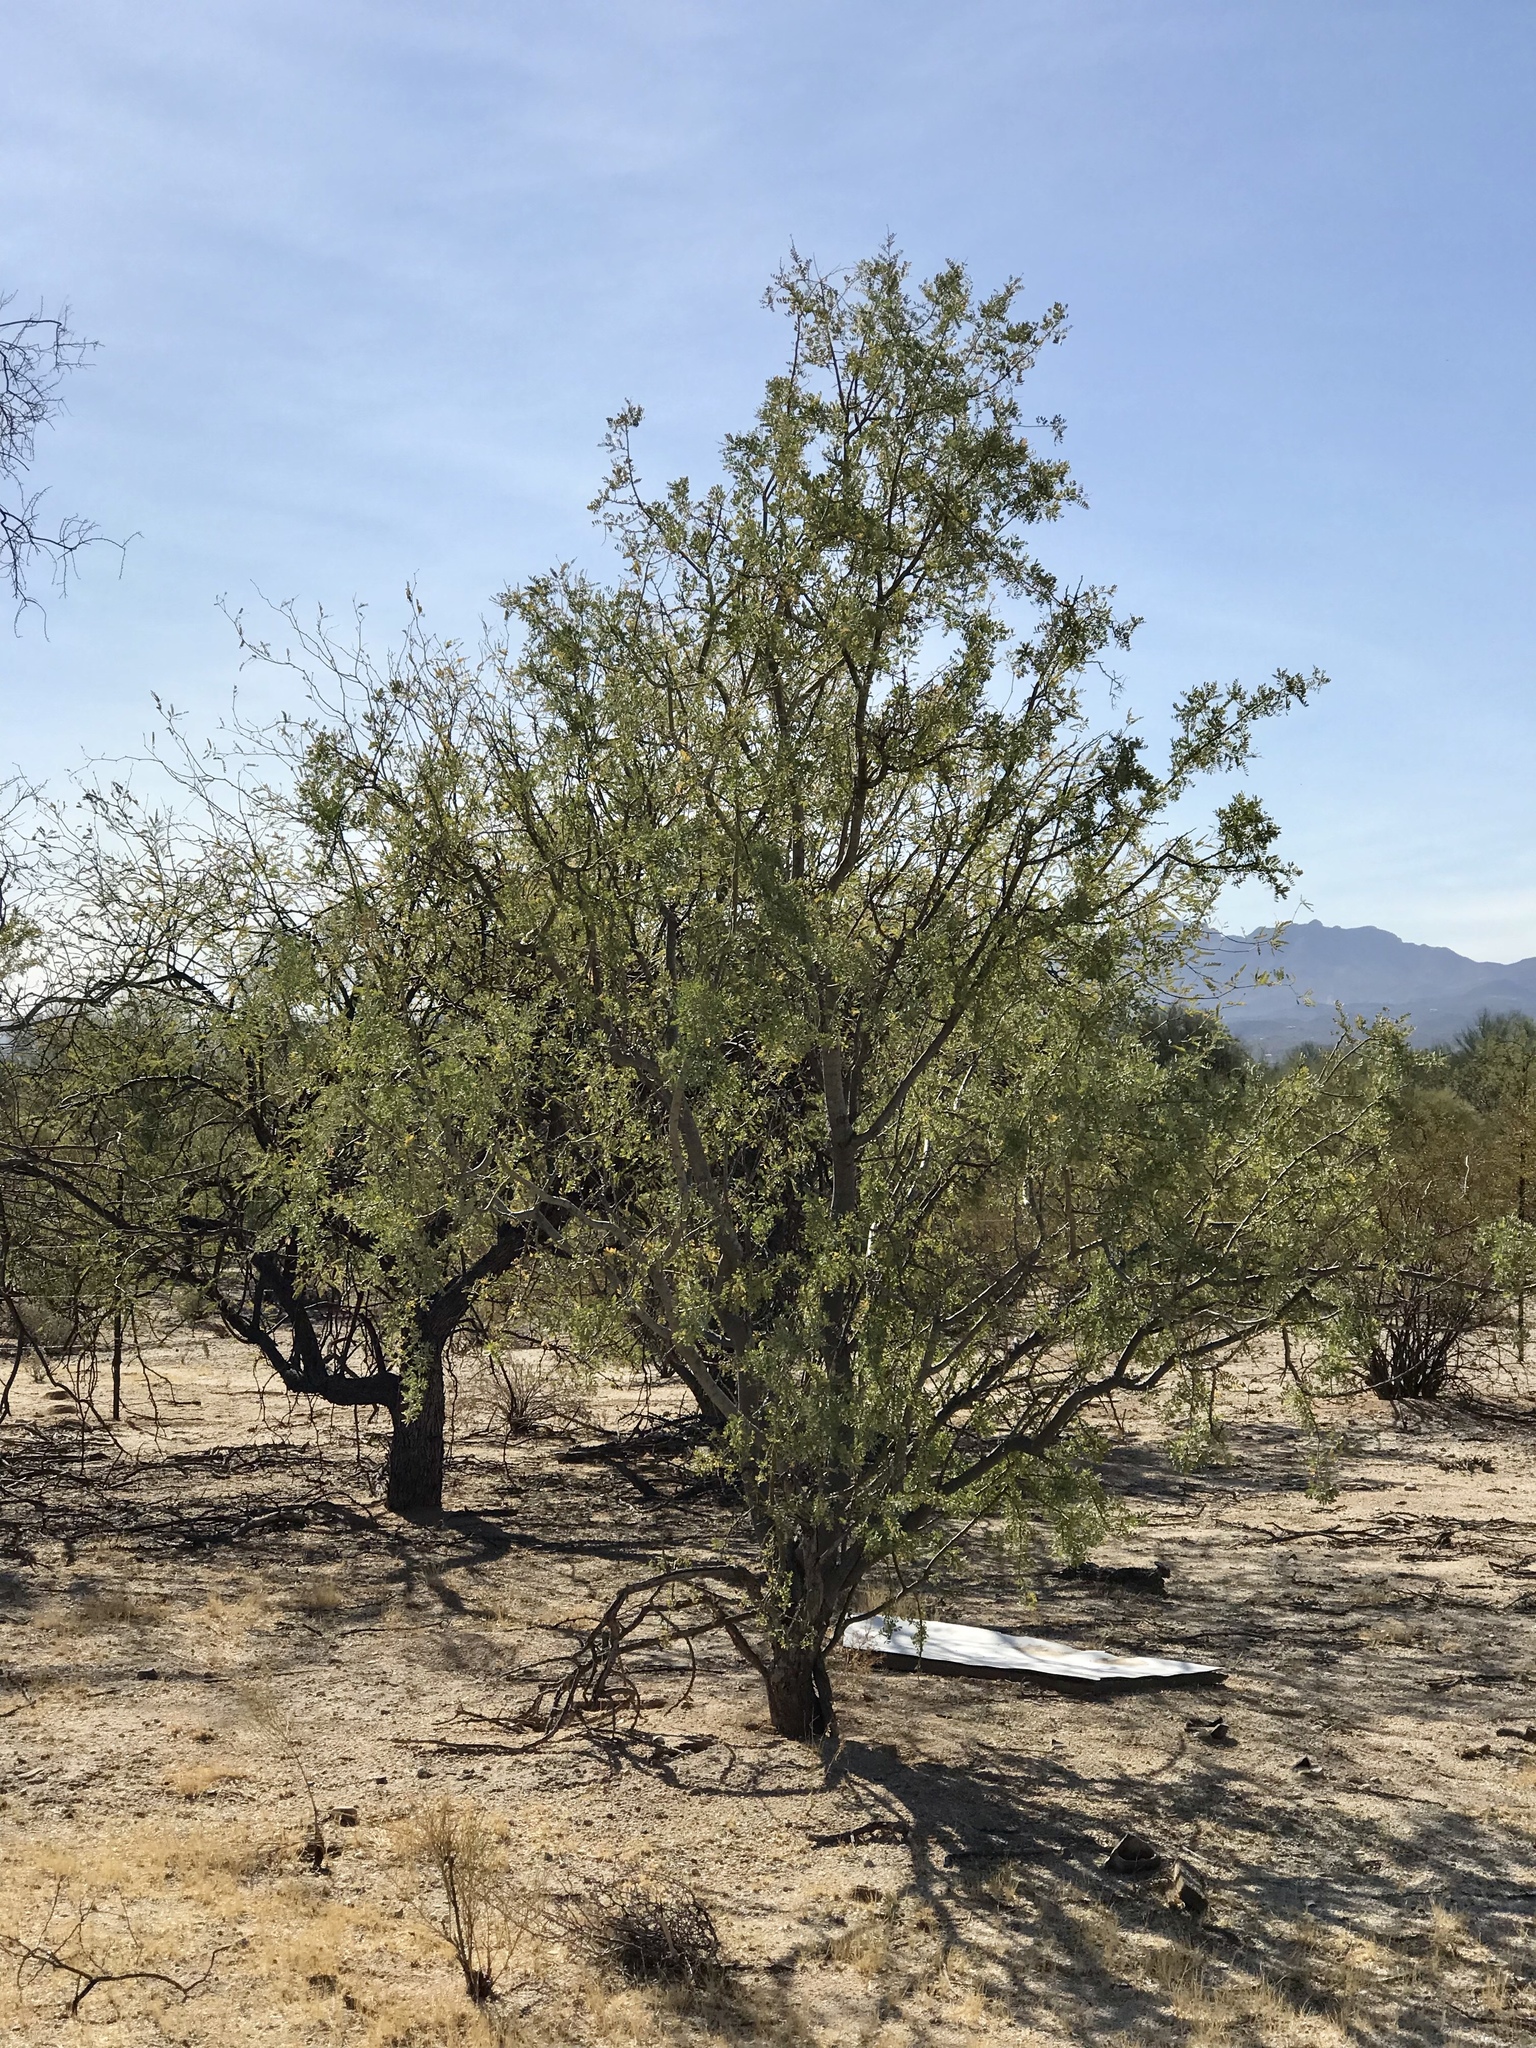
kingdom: Plantae
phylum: Tracheophyta
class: Magnoliopsida
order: Fabales
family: Fabaceae
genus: Prosopis
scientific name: Prosopis velutina
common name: Velvet mesquite
